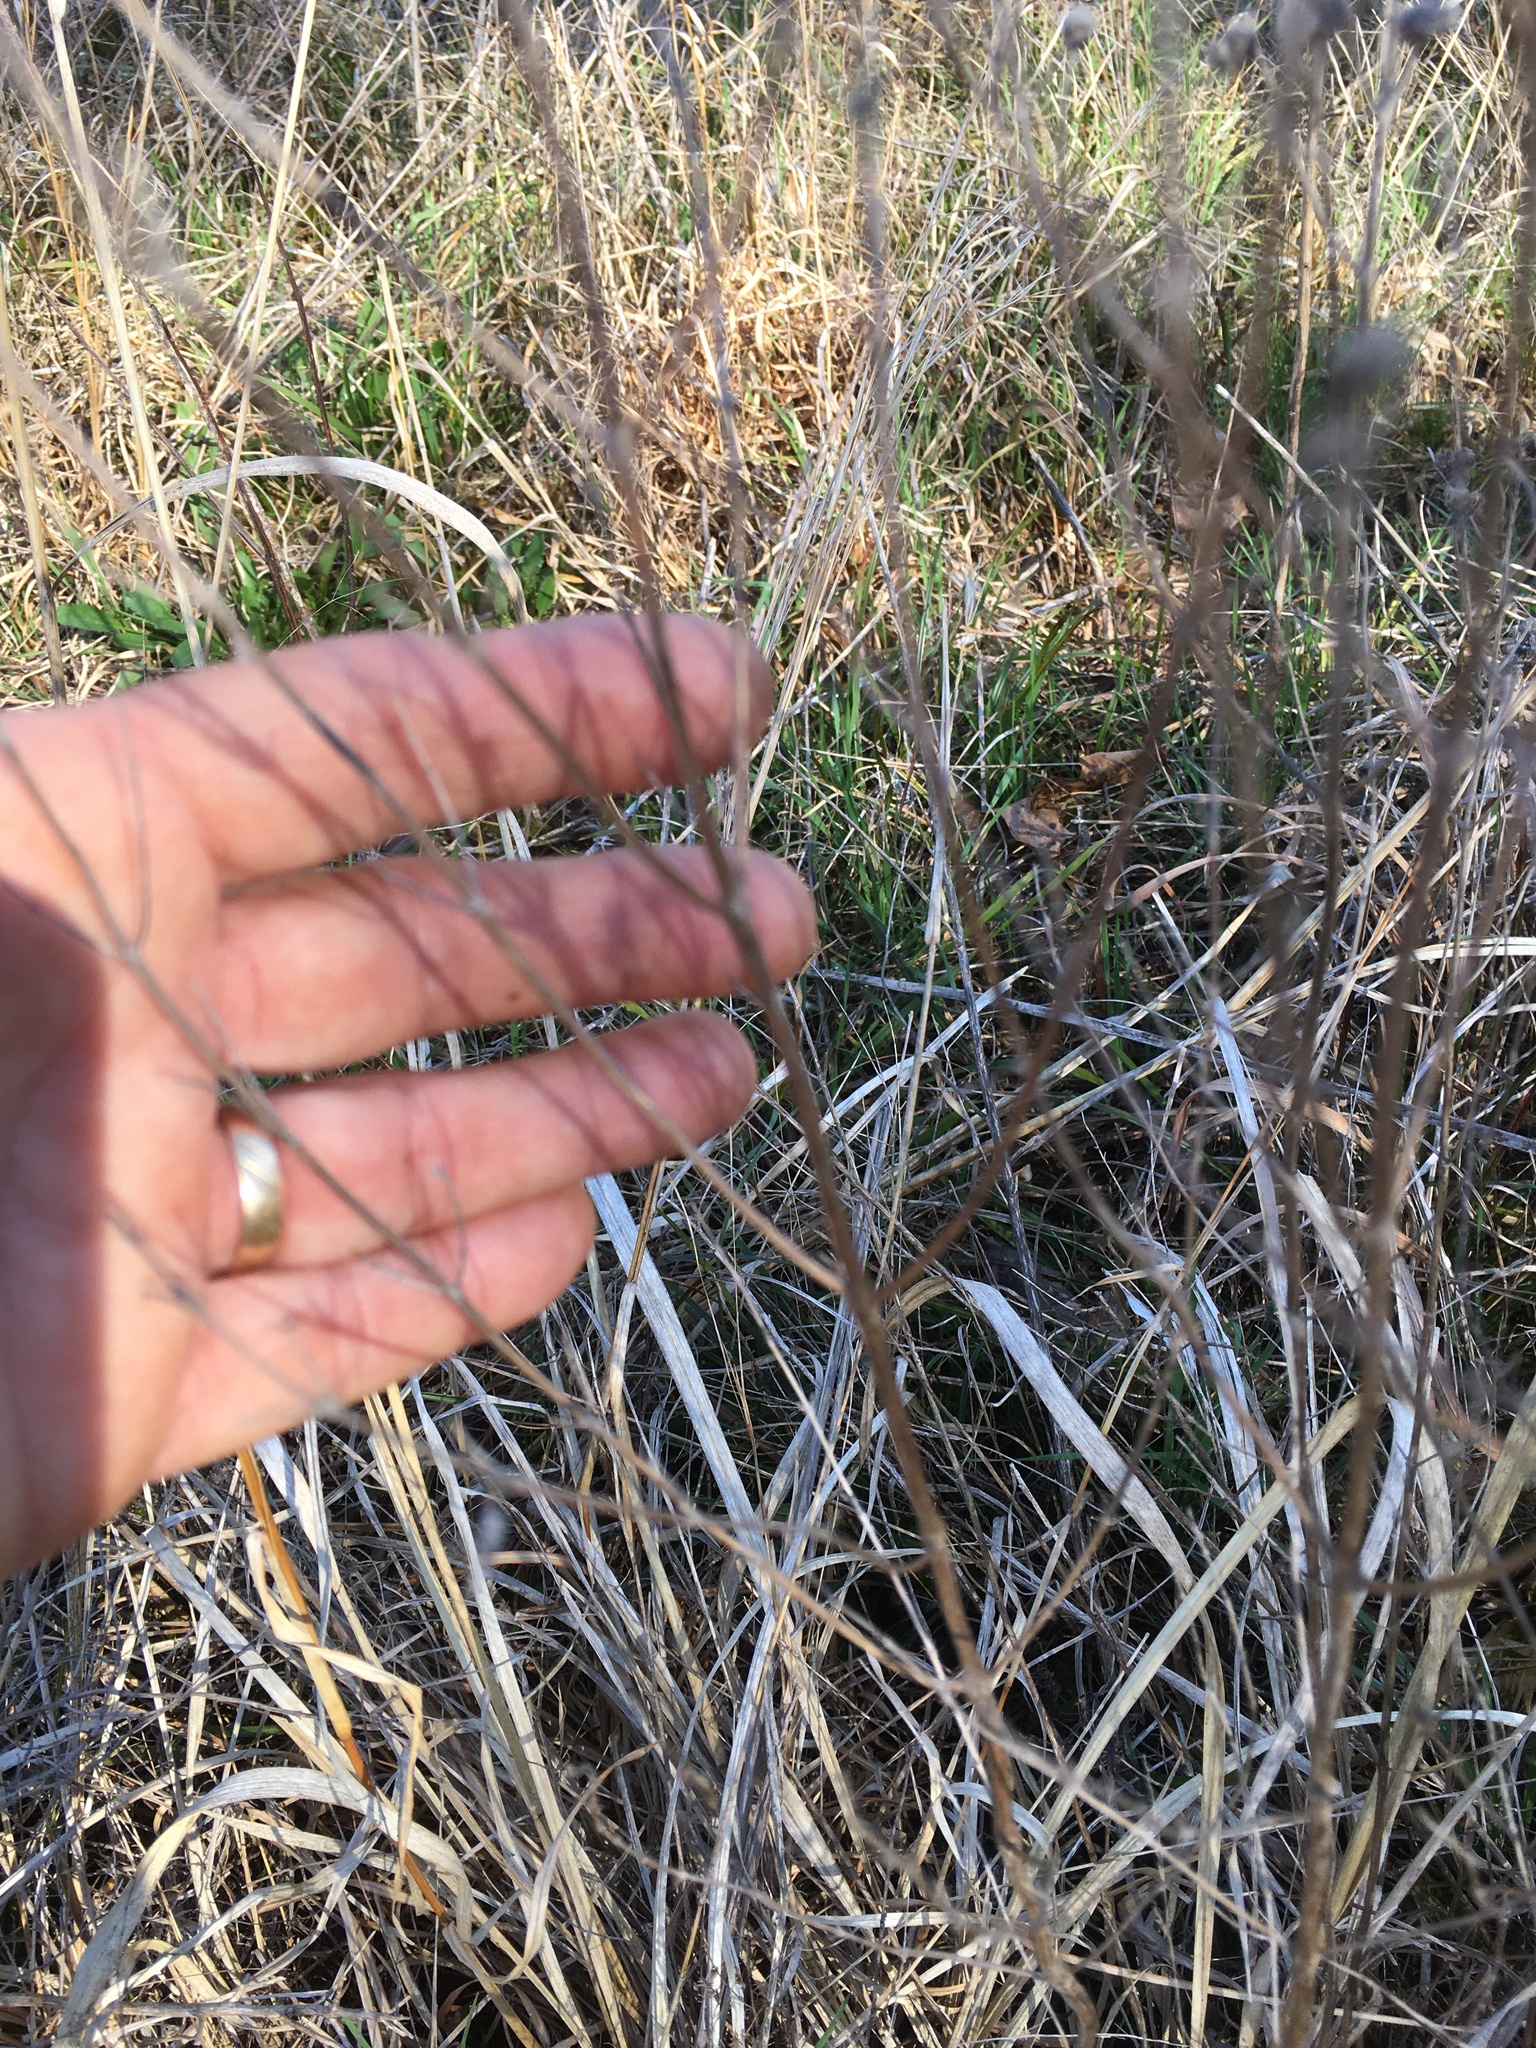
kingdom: Plantae
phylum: Tracheophyta
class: Magnoliopsida
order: Lamiales
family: Lamiaceae
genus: Pycnanthemum
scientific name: Pycnanthemum tenuifolium
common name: Narrow-leaf mountain-mint
